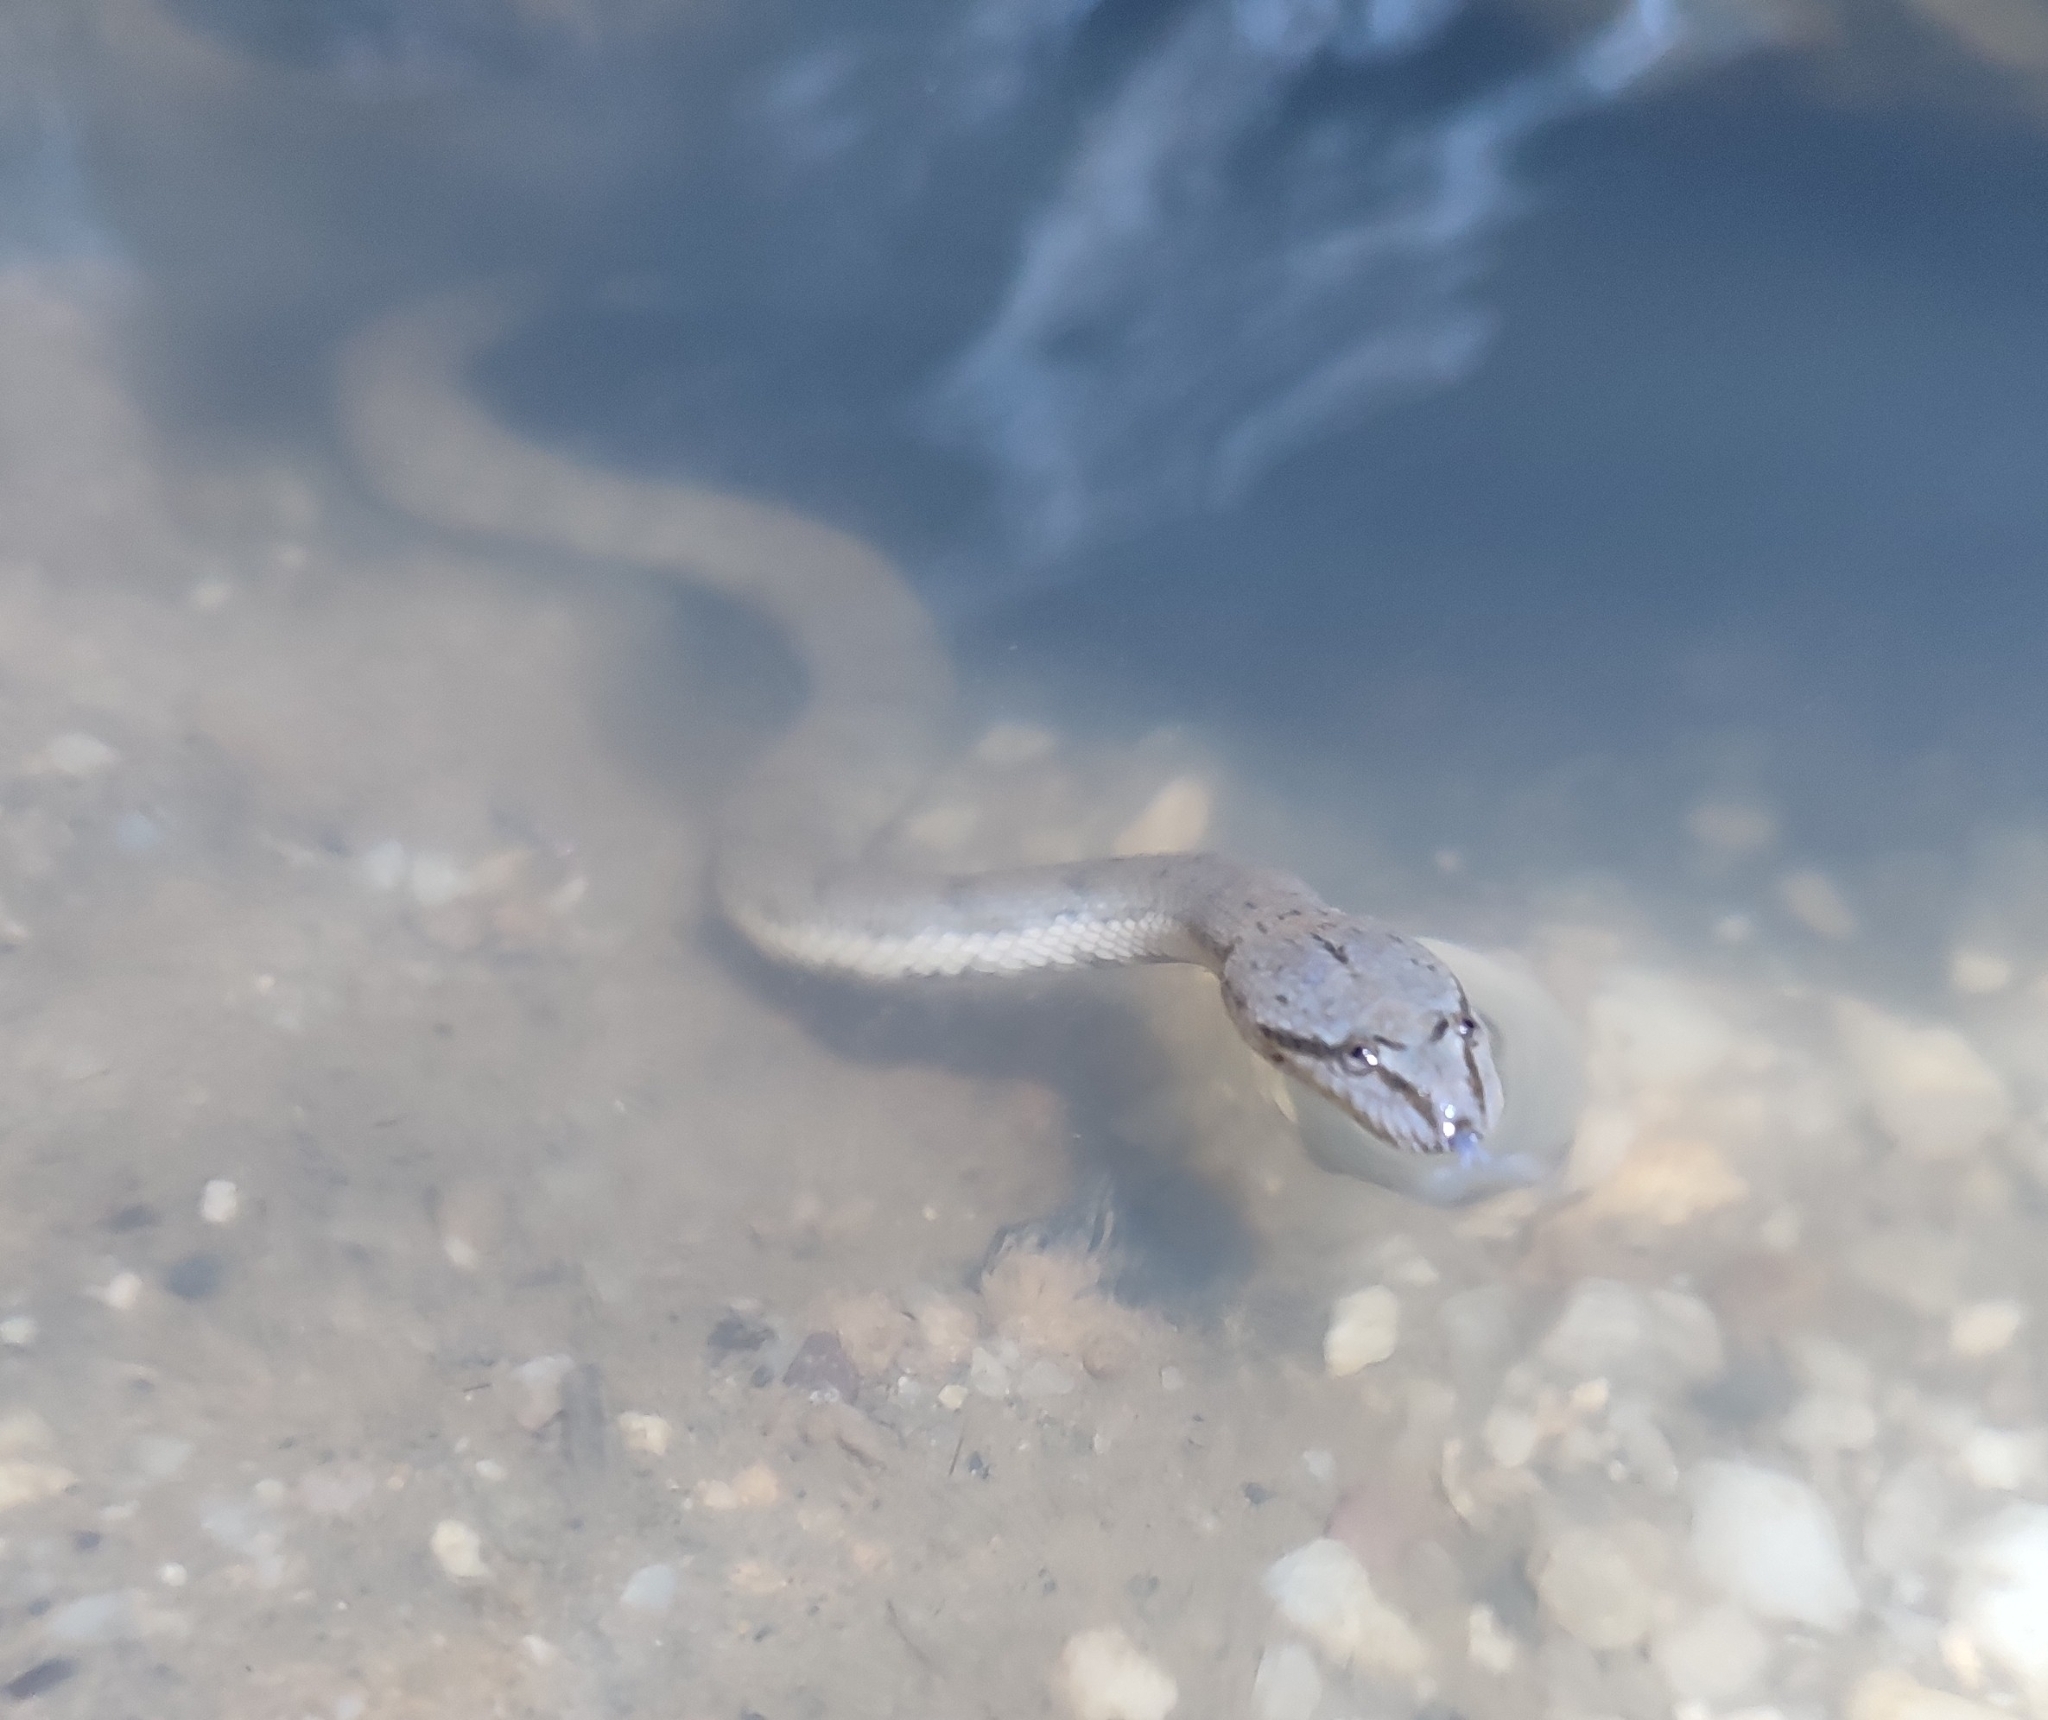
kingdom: Animalia
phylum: Chordata
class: Squamata
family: Homalopsidae
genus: Cerberus
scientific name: Cerberus schneiderii
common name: Southeast asian bockadam
